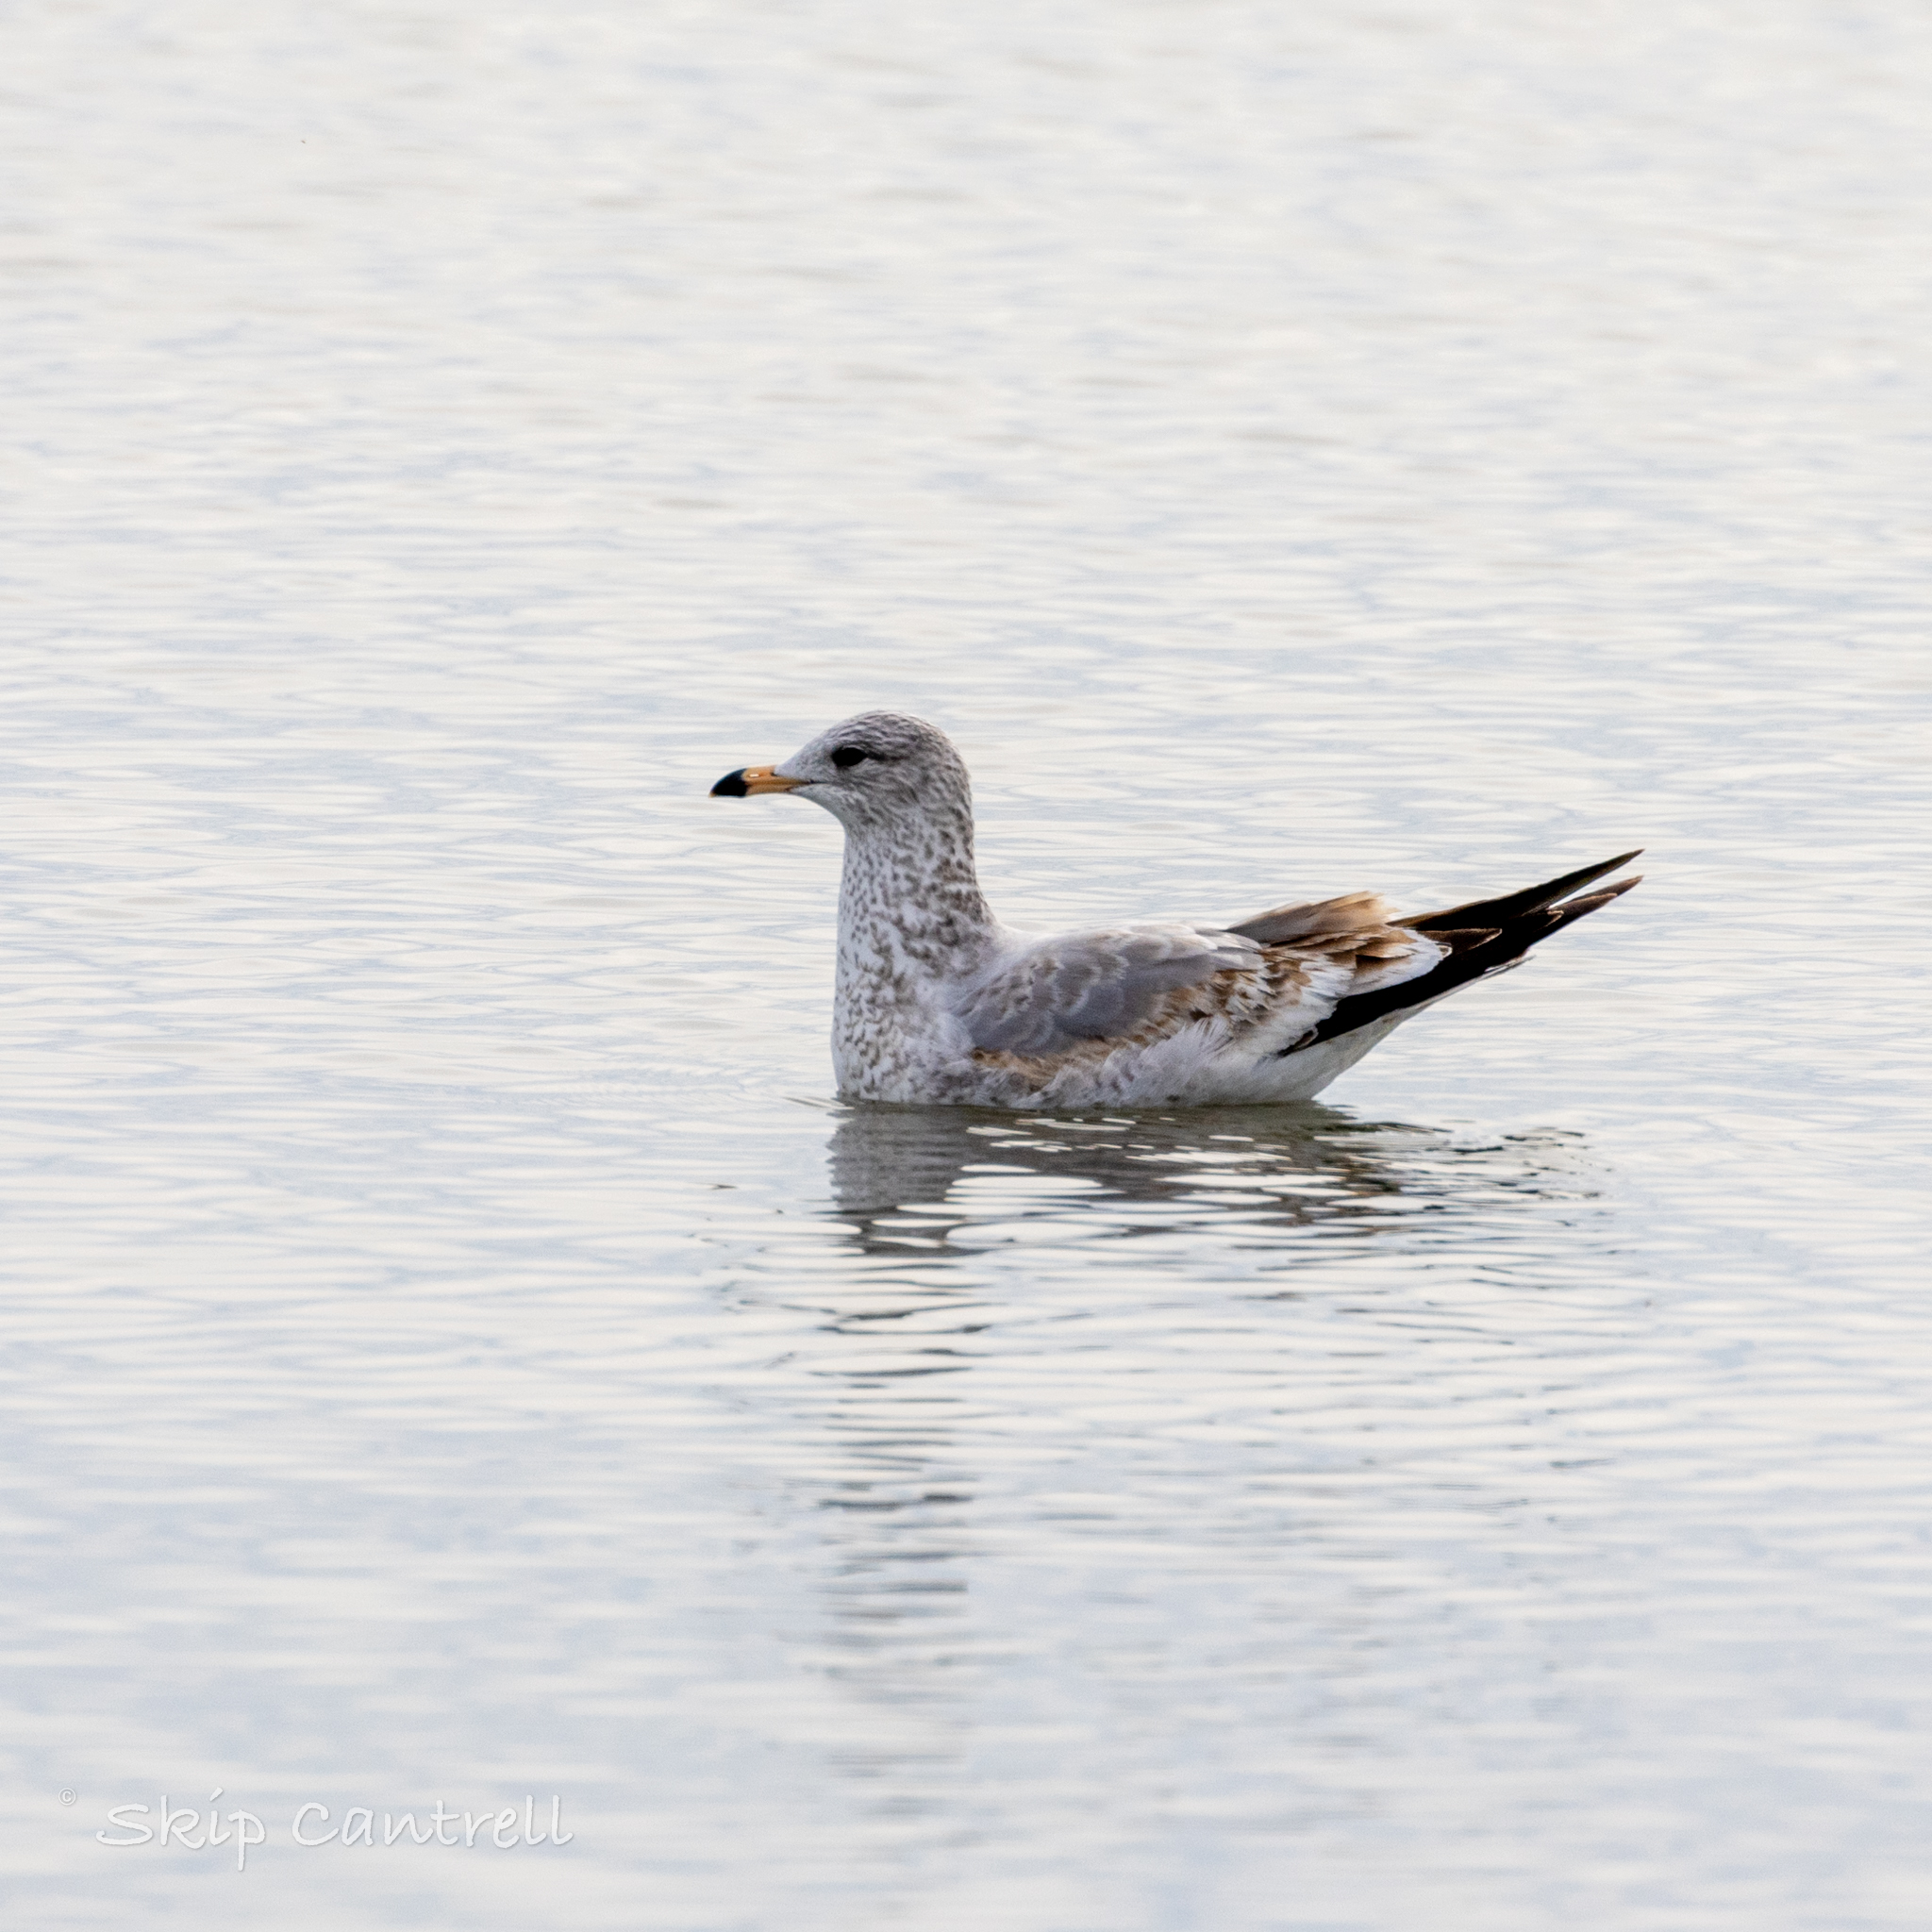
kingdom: Animalia
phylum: Chordata
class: Aves
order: Charadriiformes
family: Laridae
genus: Larus
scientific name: Larus delawarensis
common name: Ring-billed gull
